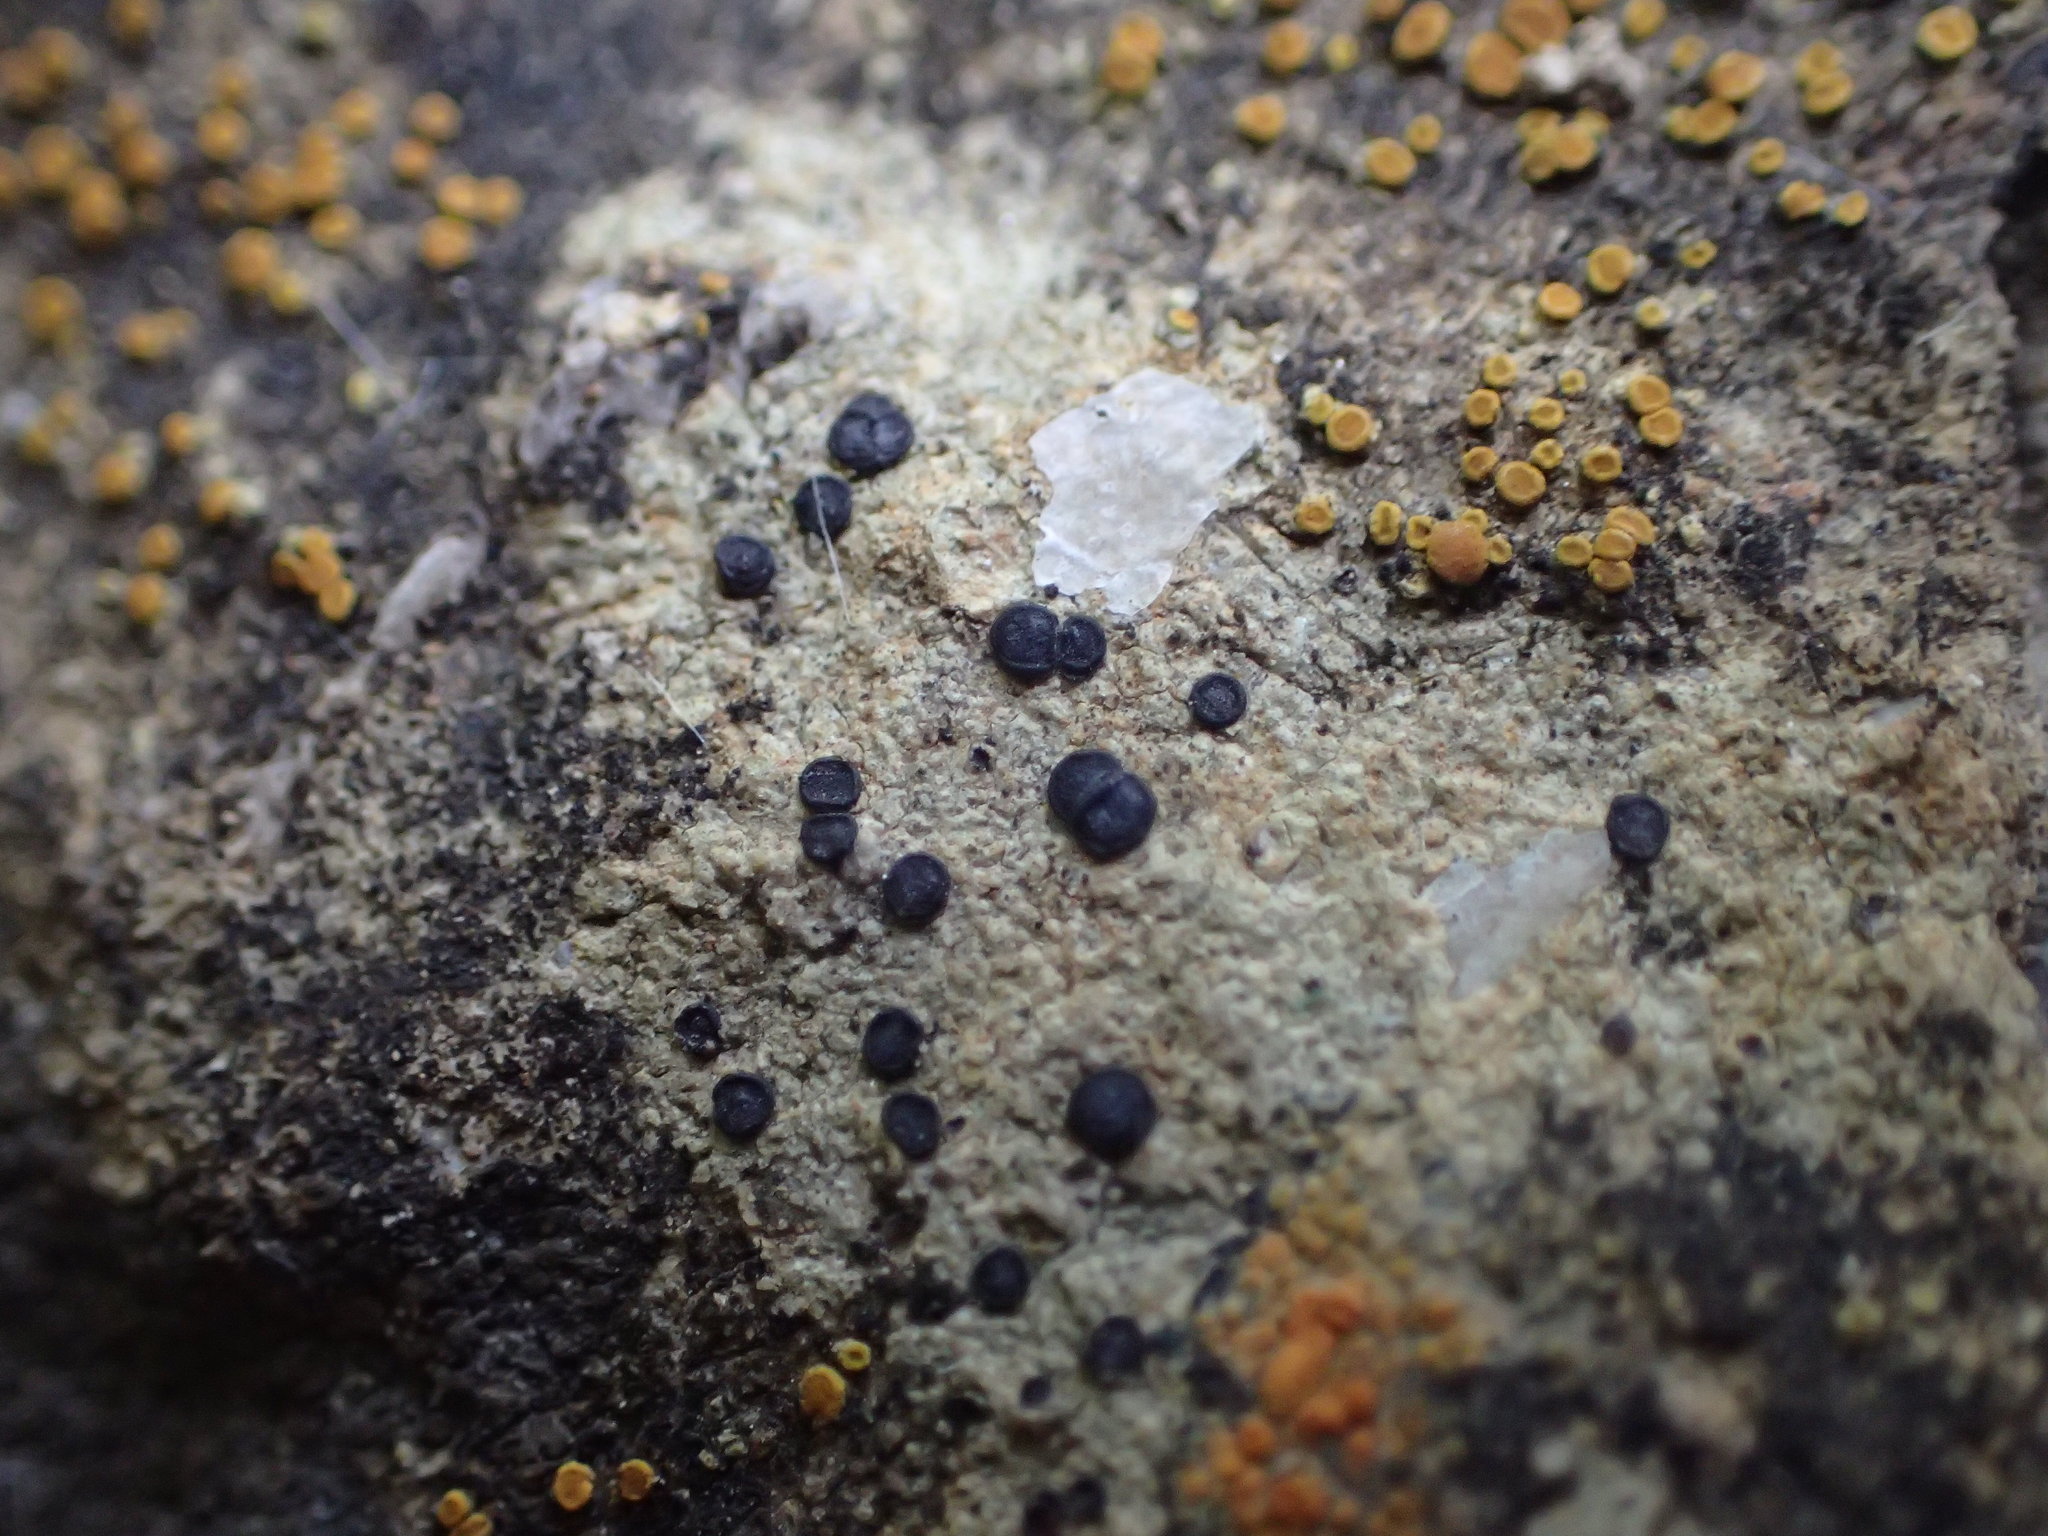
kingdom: Fungi
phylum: Ascomycota
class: Lecanoromycetes
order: Acarosporales
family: Acarosporaceae
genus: Sarcogyne
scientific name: Sarcogyne regularis
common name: Frosted grain-spored lichen
